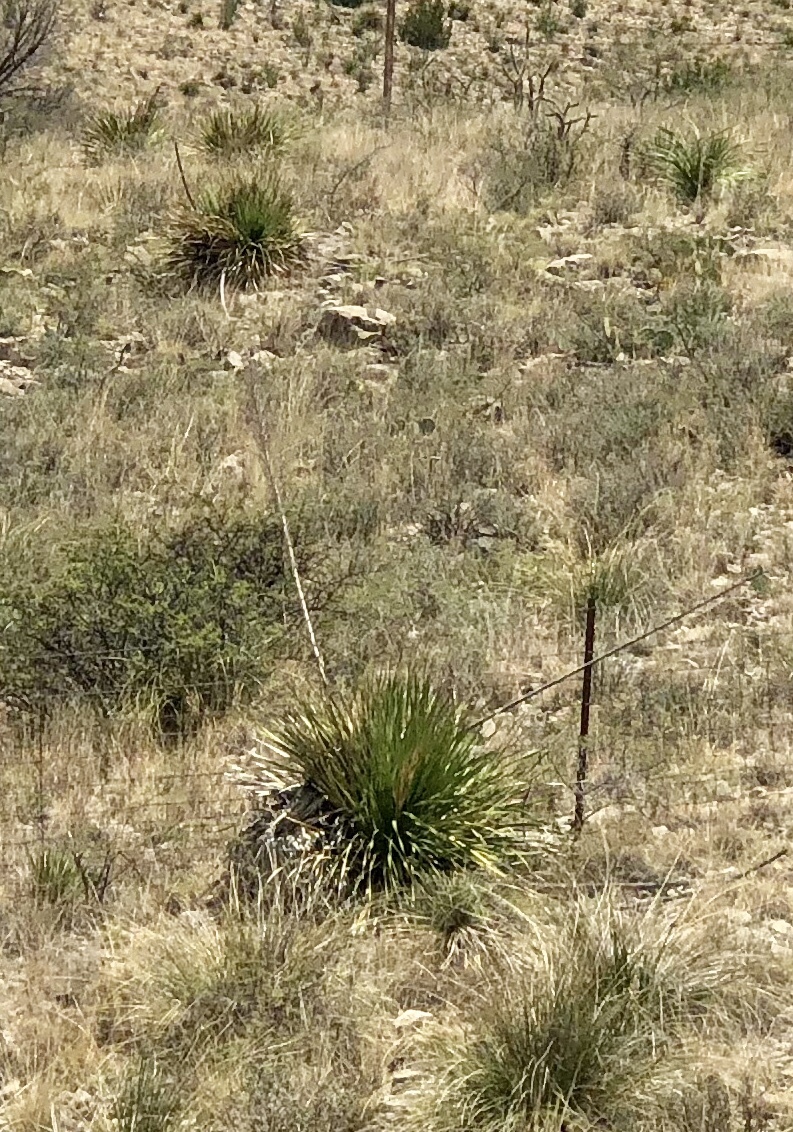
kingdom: Plantae
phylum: Tracheophyta
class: Liliopsida
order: Asparagales
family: Asparagaceae
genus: Dasylirion
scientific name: Dasylirion wheeleri
